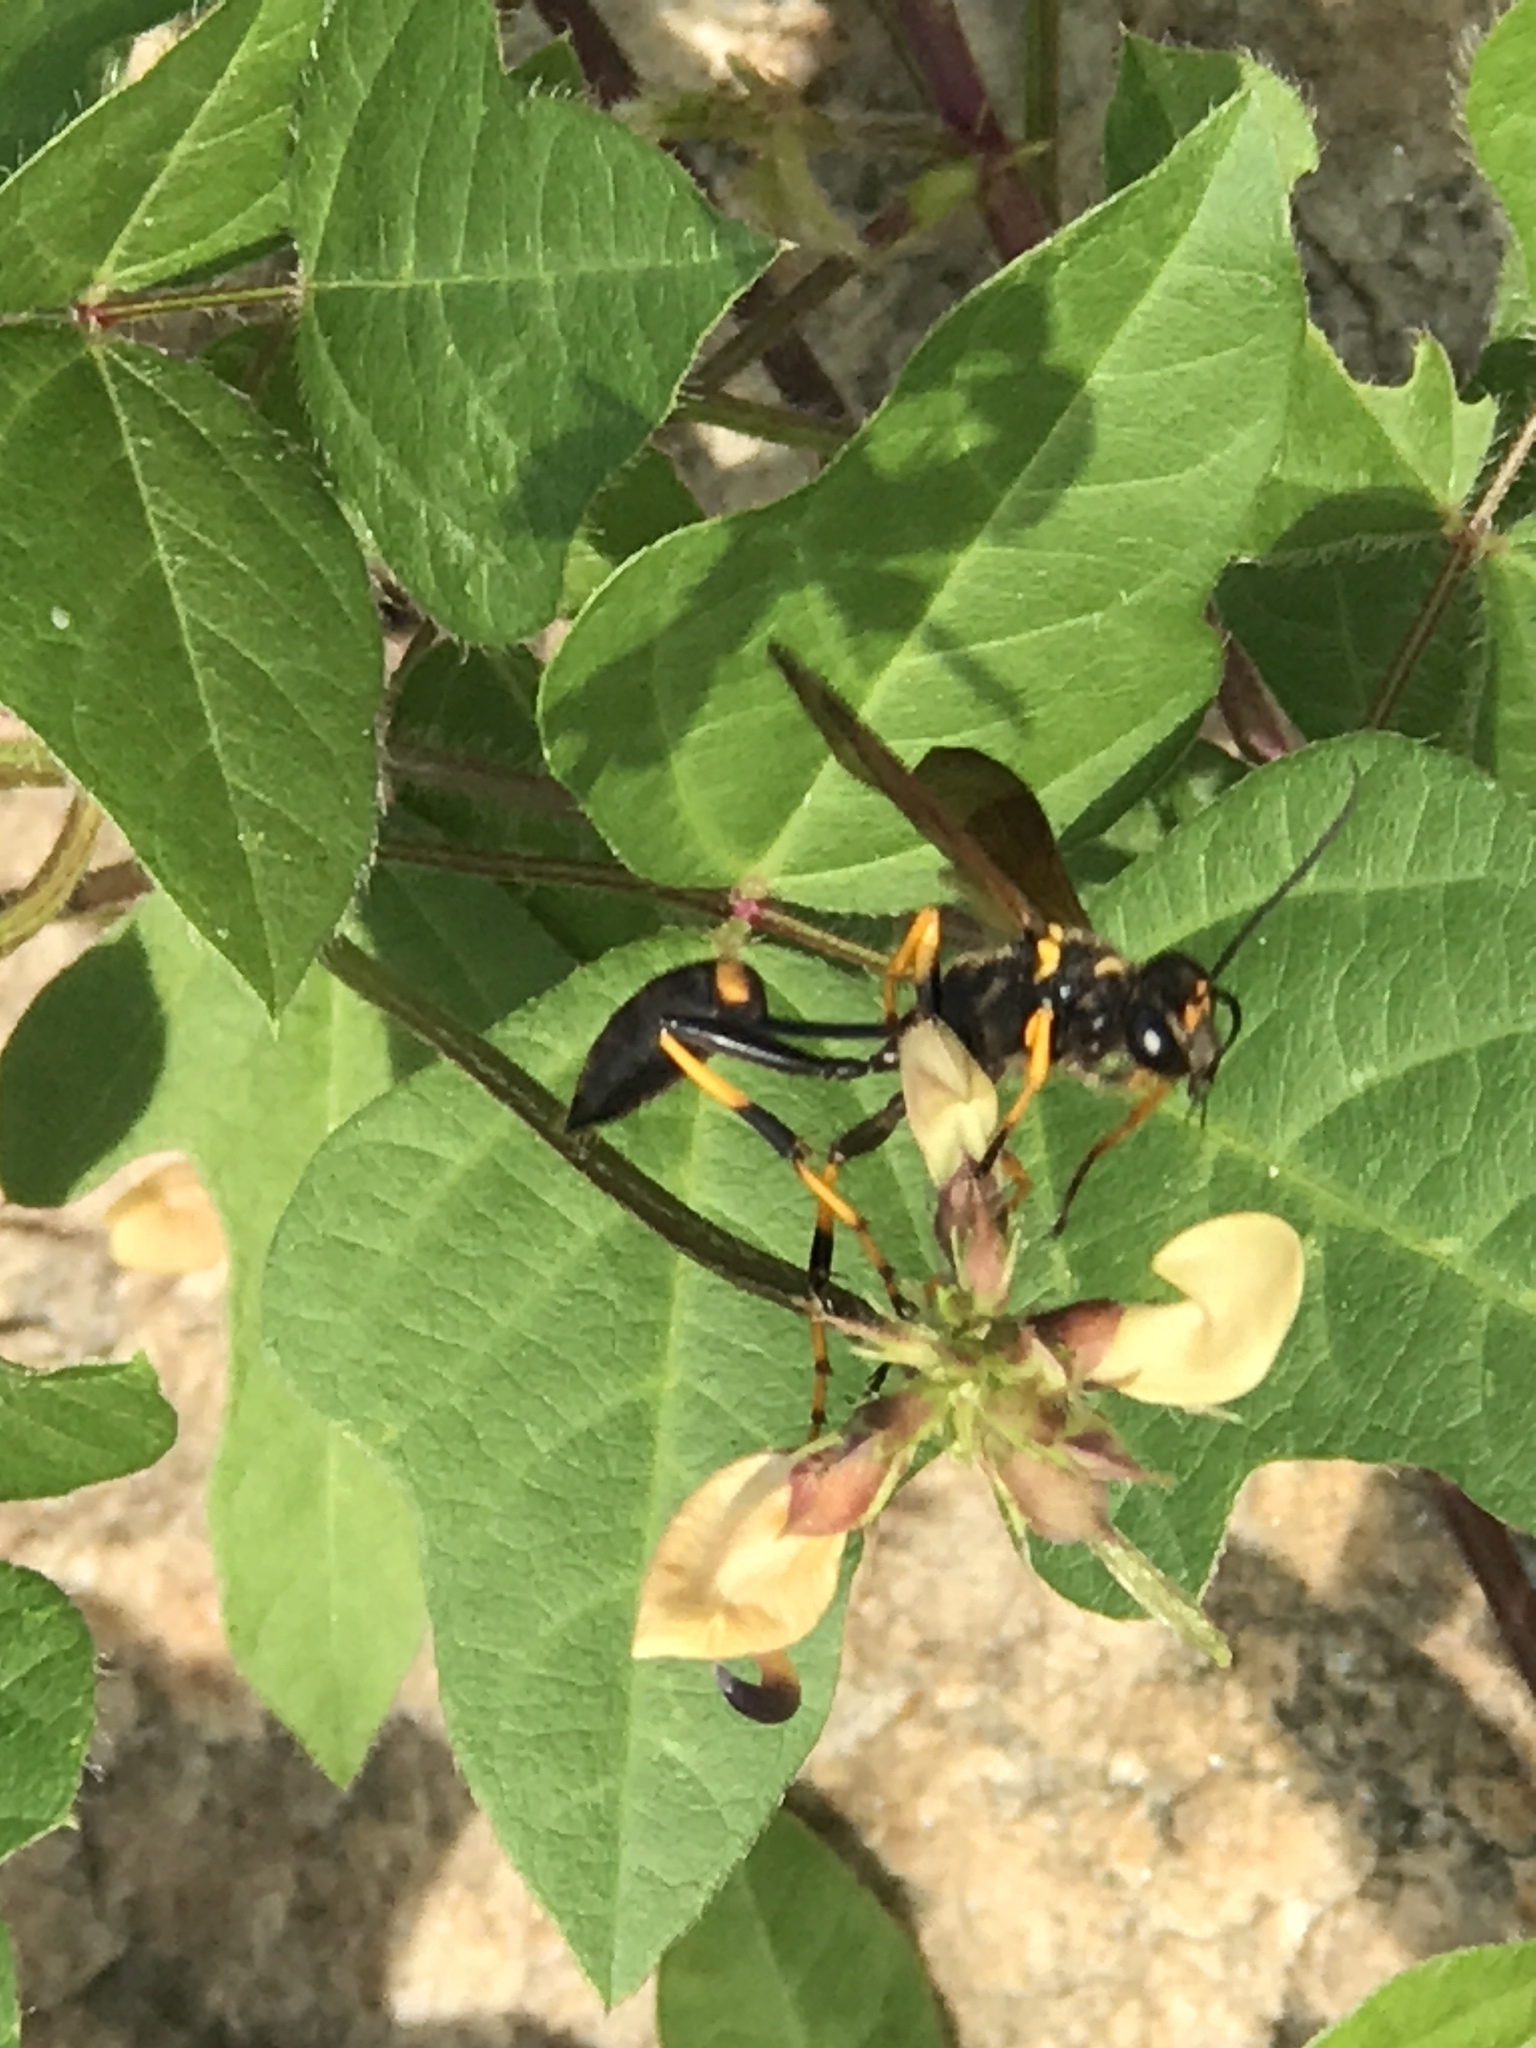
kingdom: Animalia
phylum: Arthropoda
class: Insecta
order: Hymenoptera
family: Sphecidae
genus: Sceliphron
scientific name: Sceliphron caementarium
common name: Mud dauber
